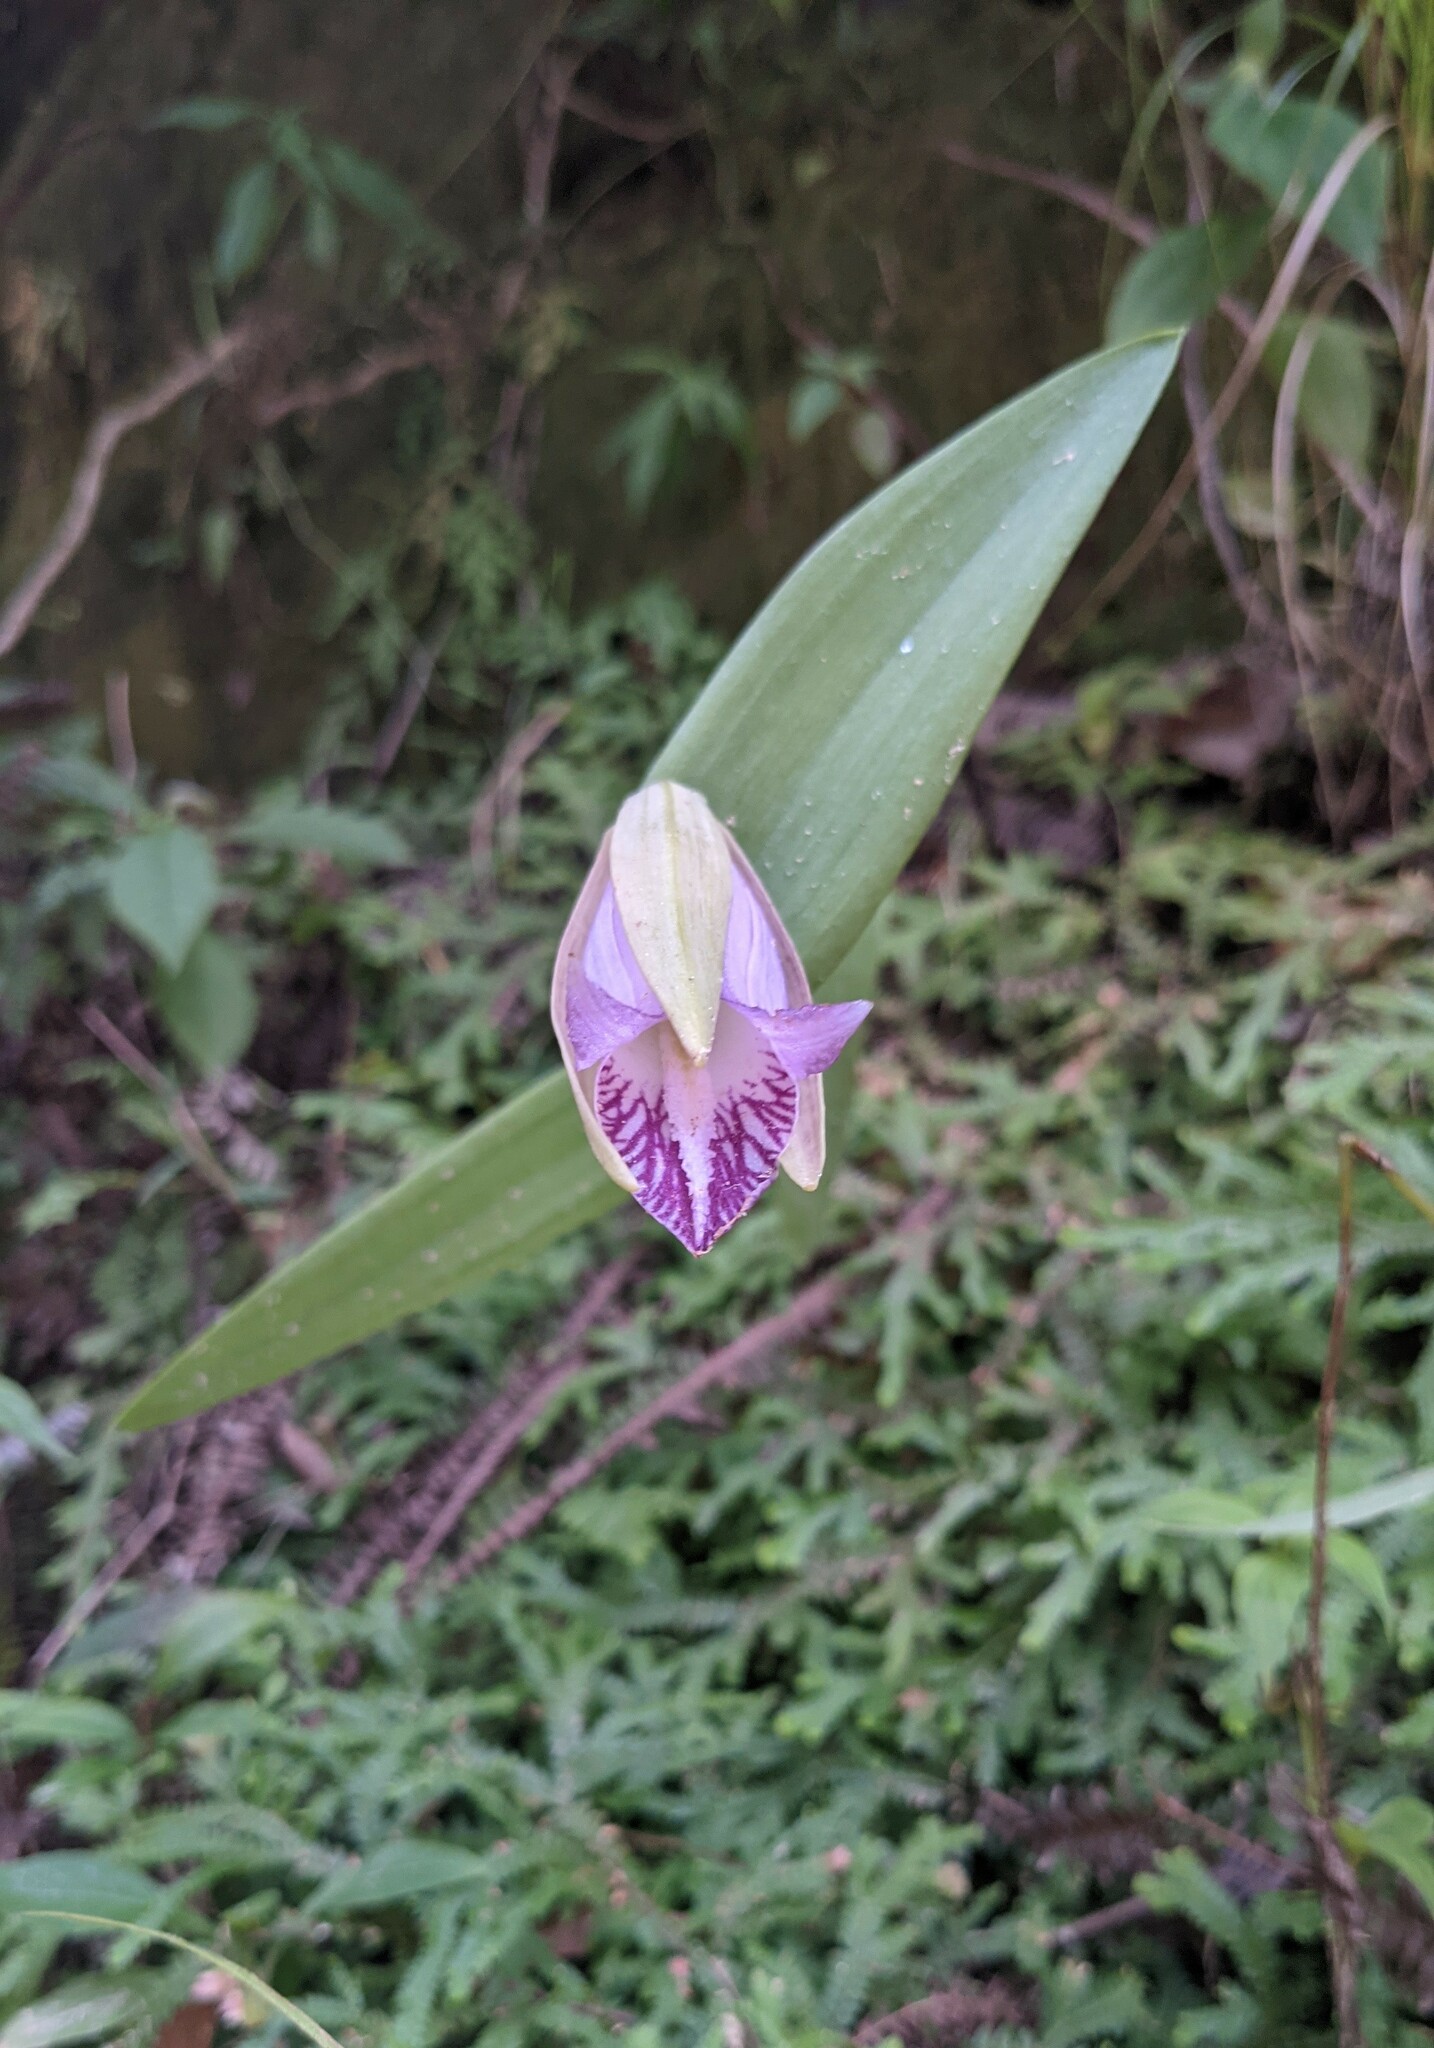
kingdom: Plantae
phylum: Tracheophyta
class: Liliopsida
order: Asparagales
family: Orchidaceae
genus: Cleistes
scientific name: Cleistes rosea
